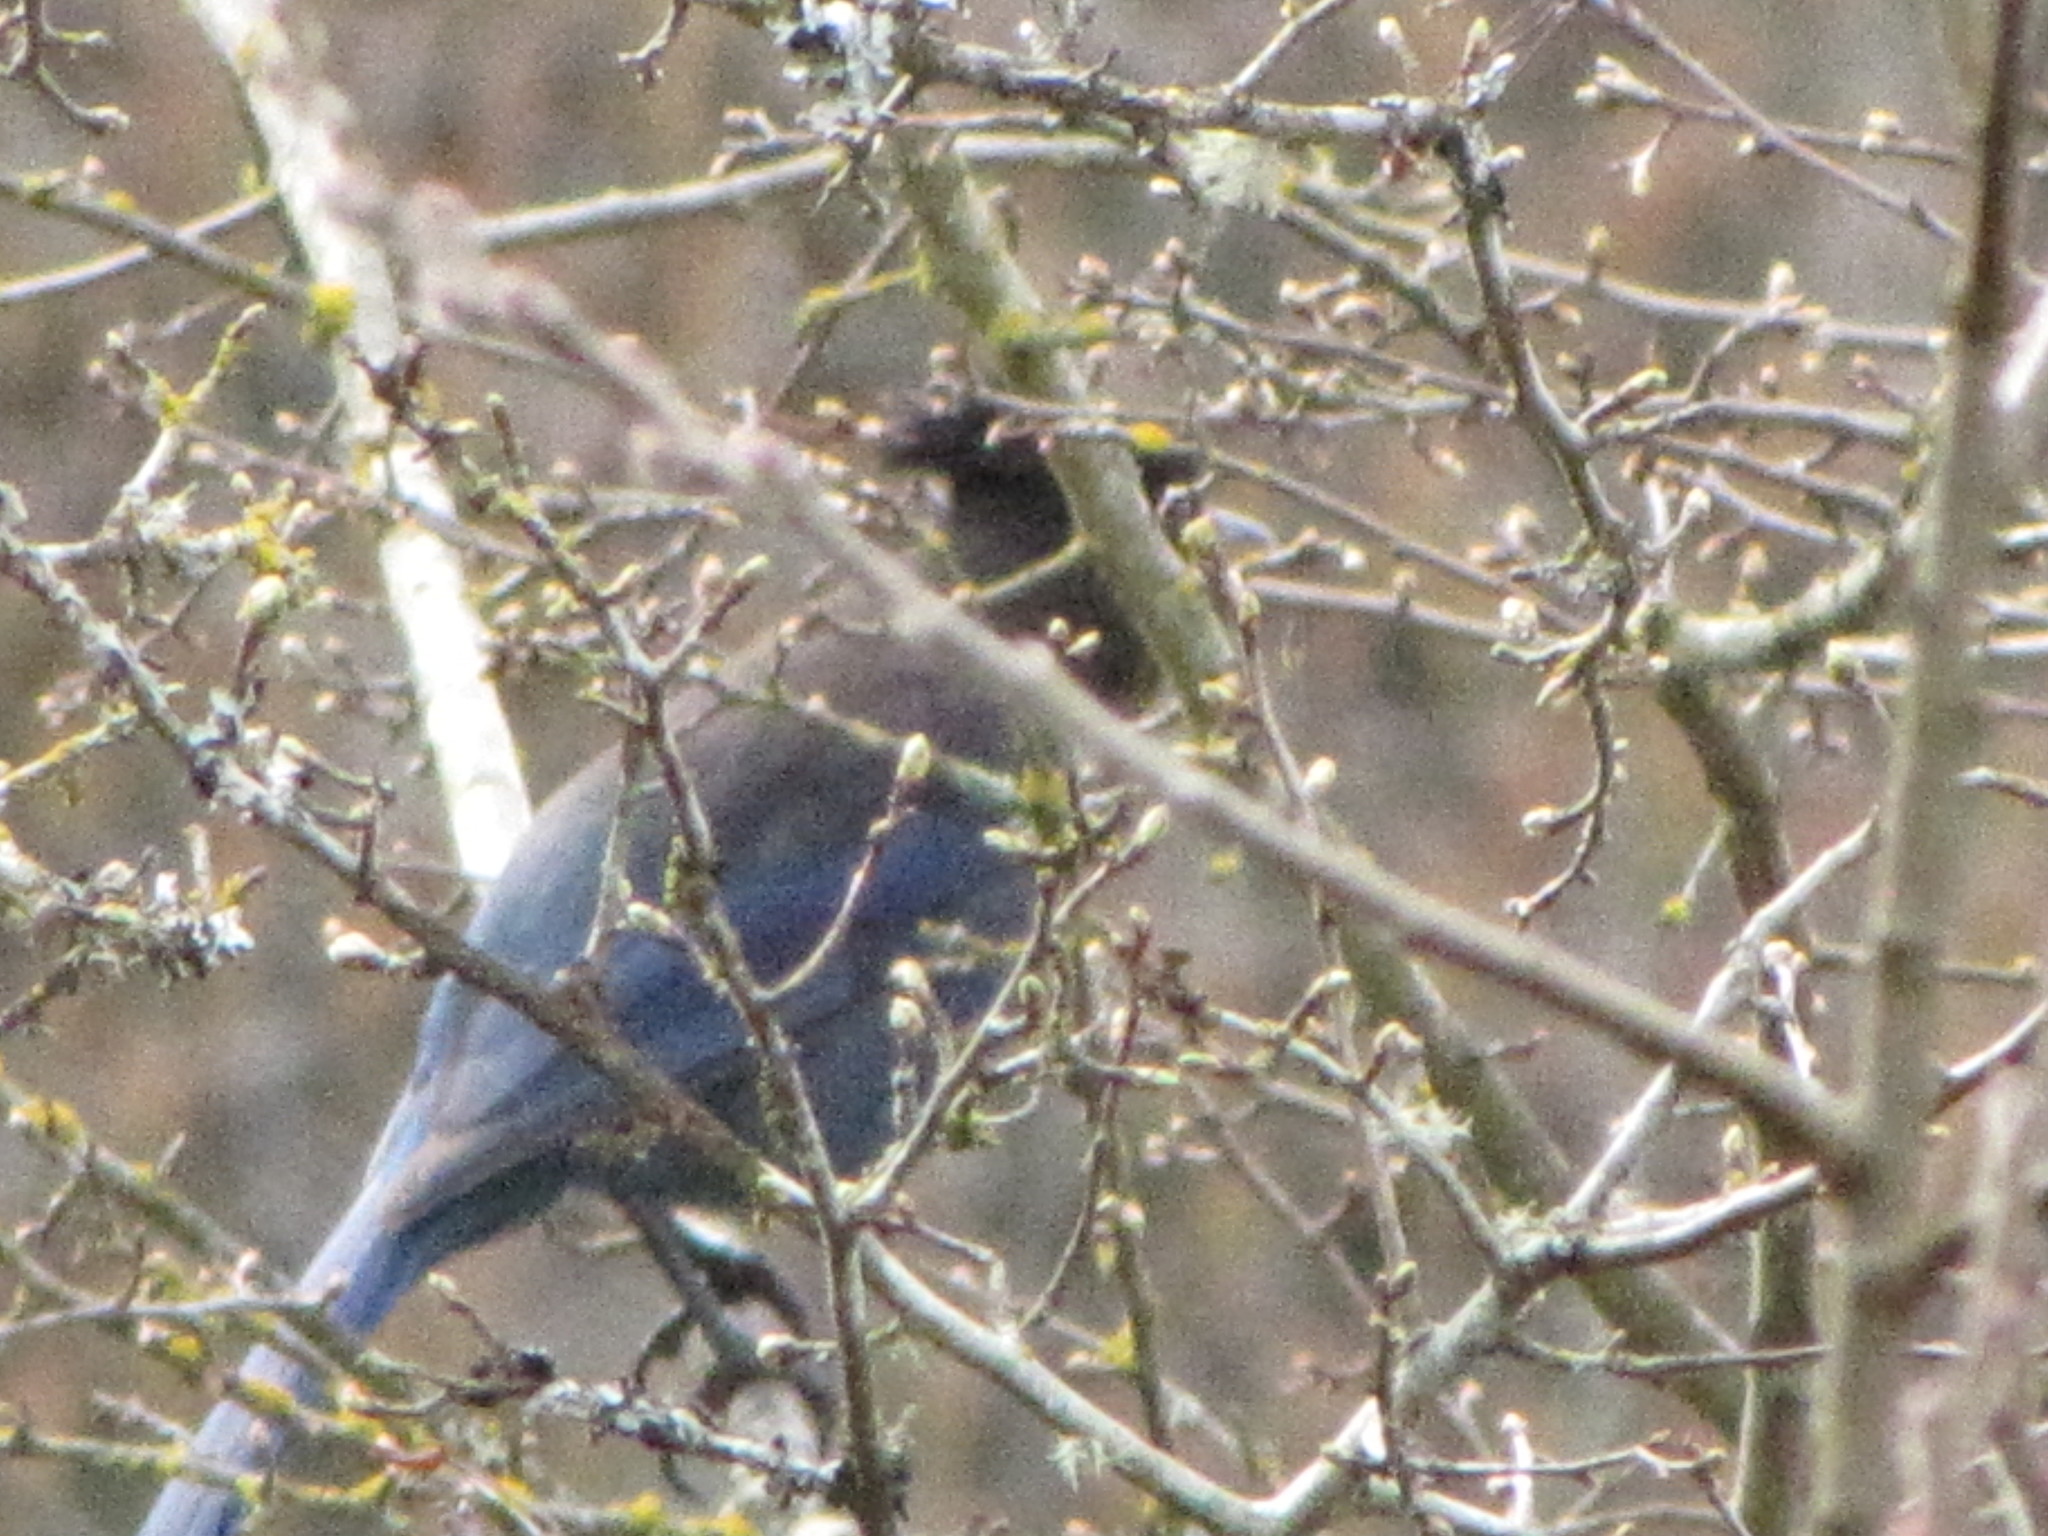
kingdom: Animalia
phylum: Chordata
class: Aves
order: Passeriformes
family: Corvidae
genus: Cyanocitta
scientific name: Cyanocitta stelleri
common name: Steller's jay
